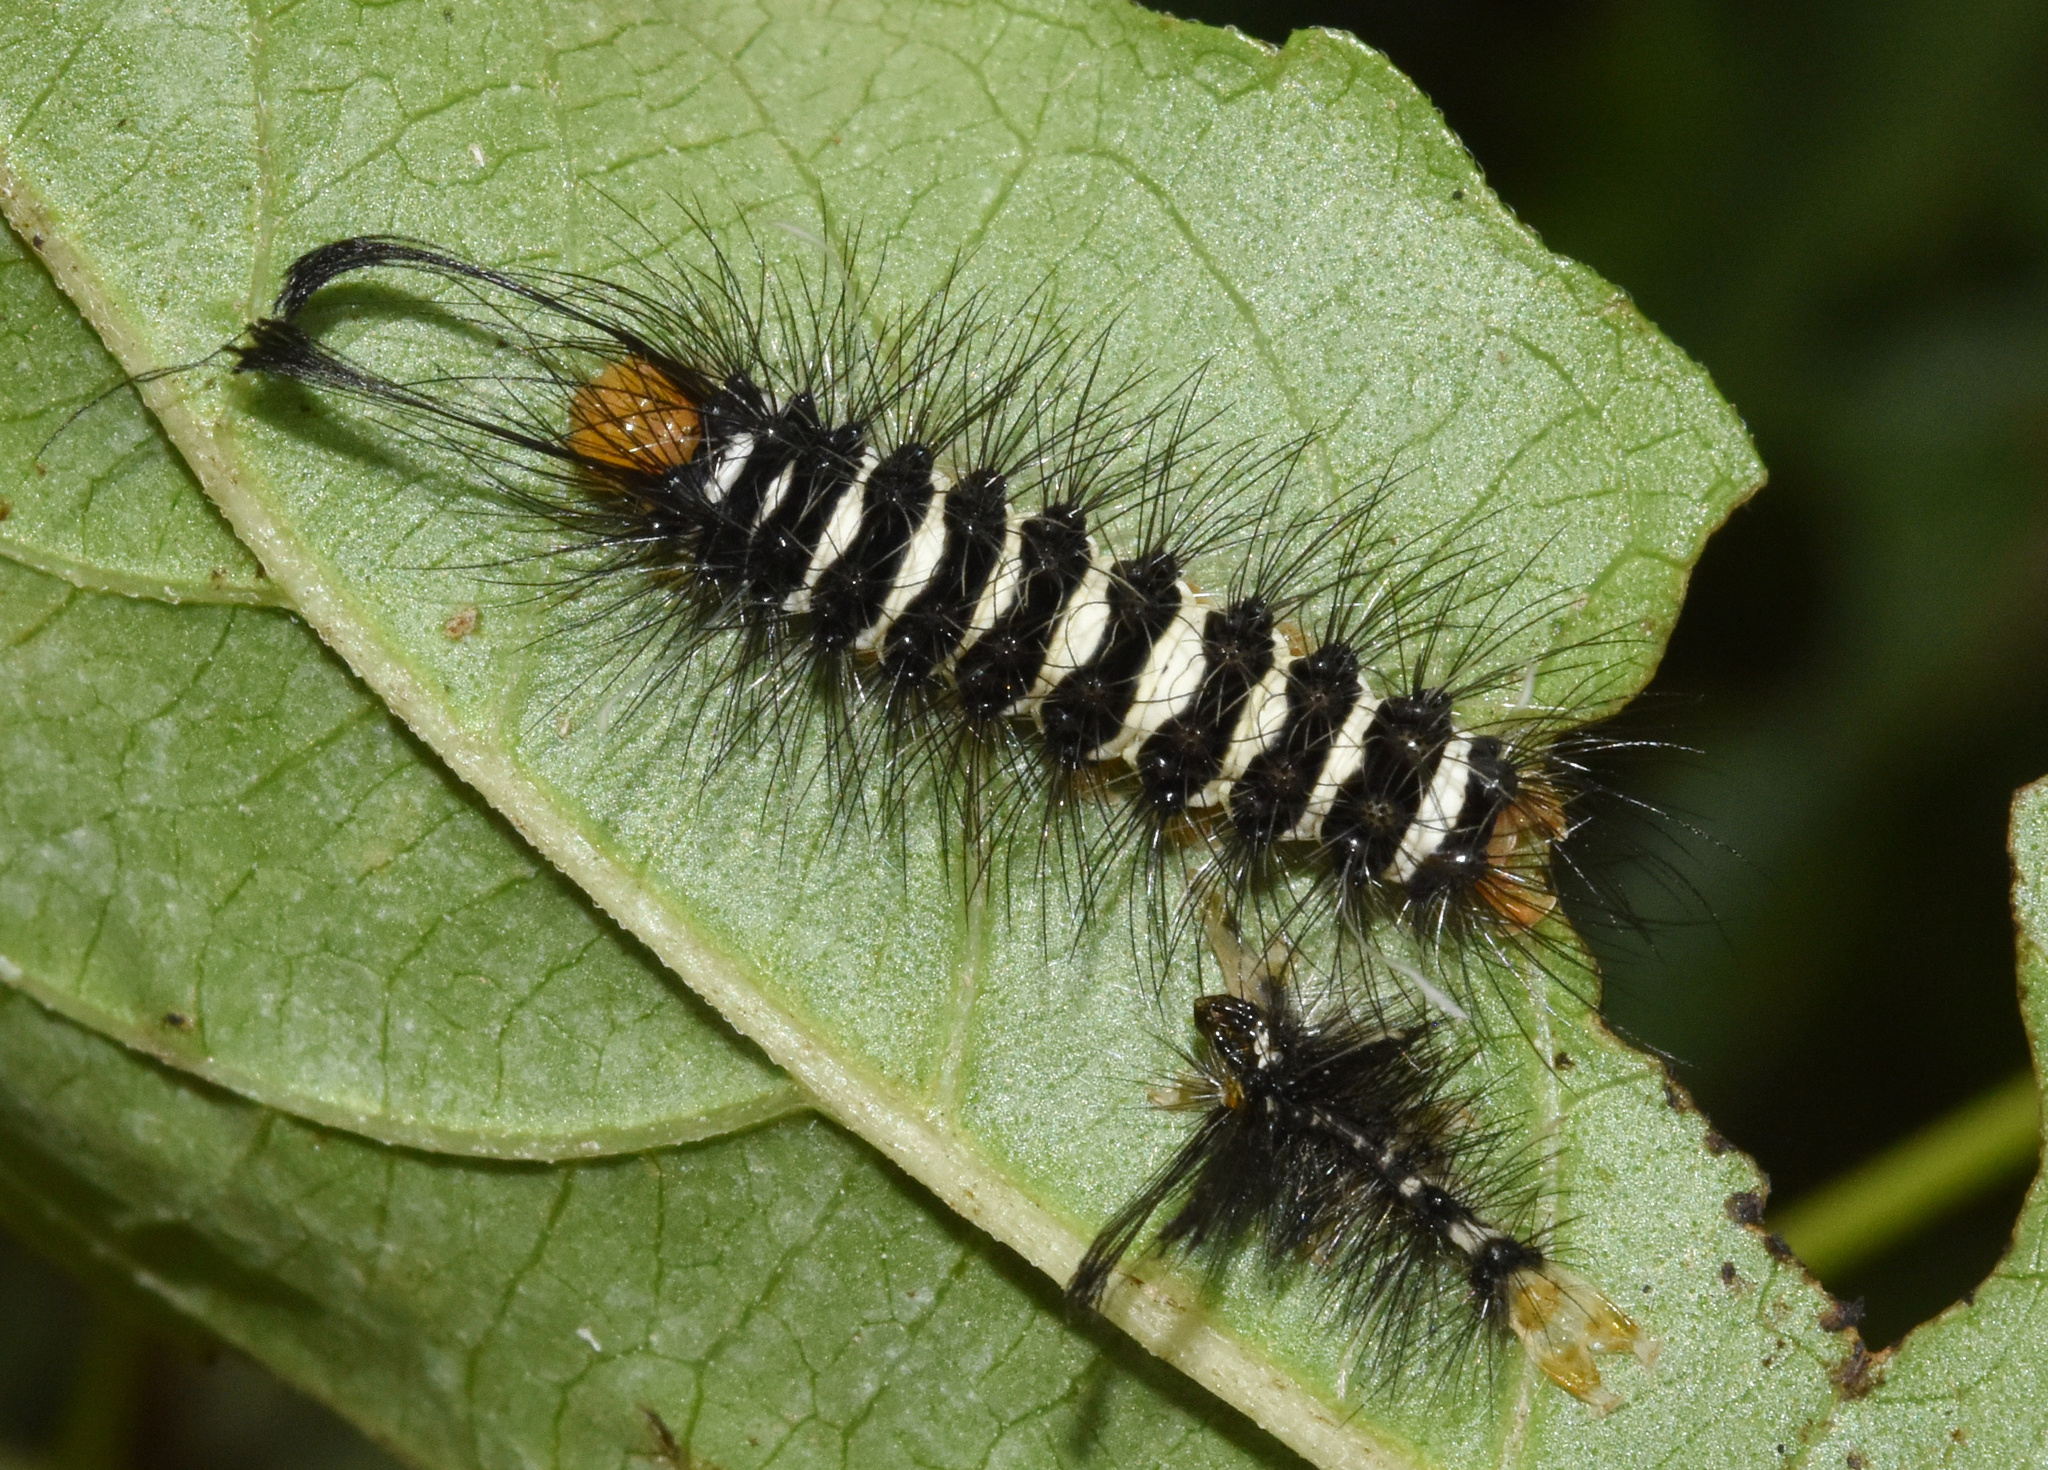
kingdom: Animalia
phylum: Arthropoda
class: Insecta
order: Lepidoptera
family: Erebidae
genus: Nyctemera
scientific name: Nyctemera
